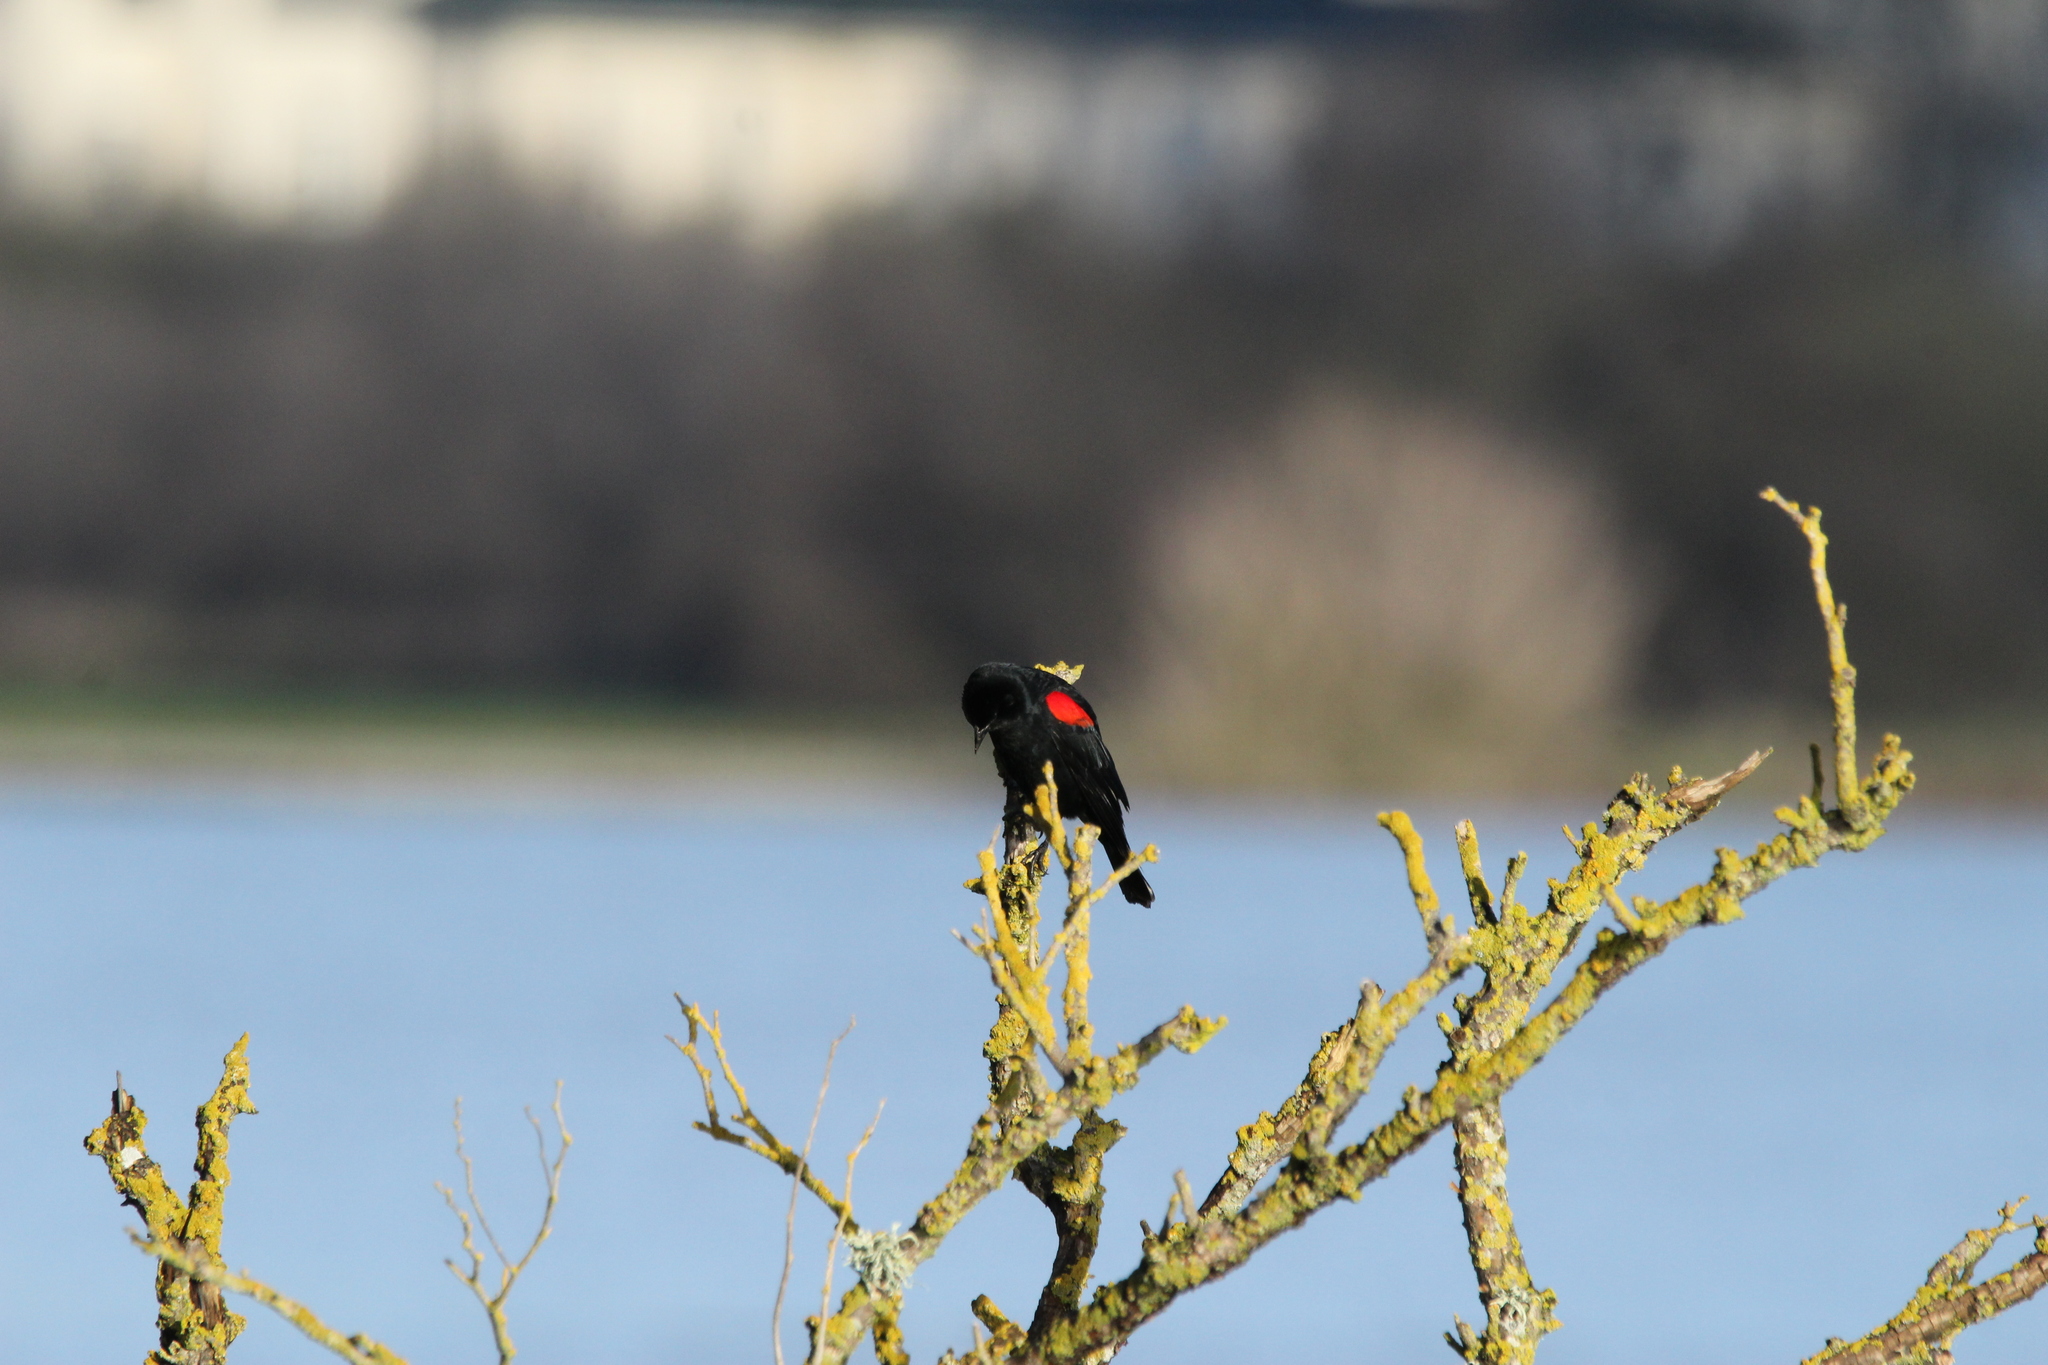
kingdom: Animalia
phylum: Chordata
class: Aves
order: Passeriformes
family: Icteridae
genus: Agelaius
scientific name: Agelaius phoeniceus
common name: Red-winged blackbird
